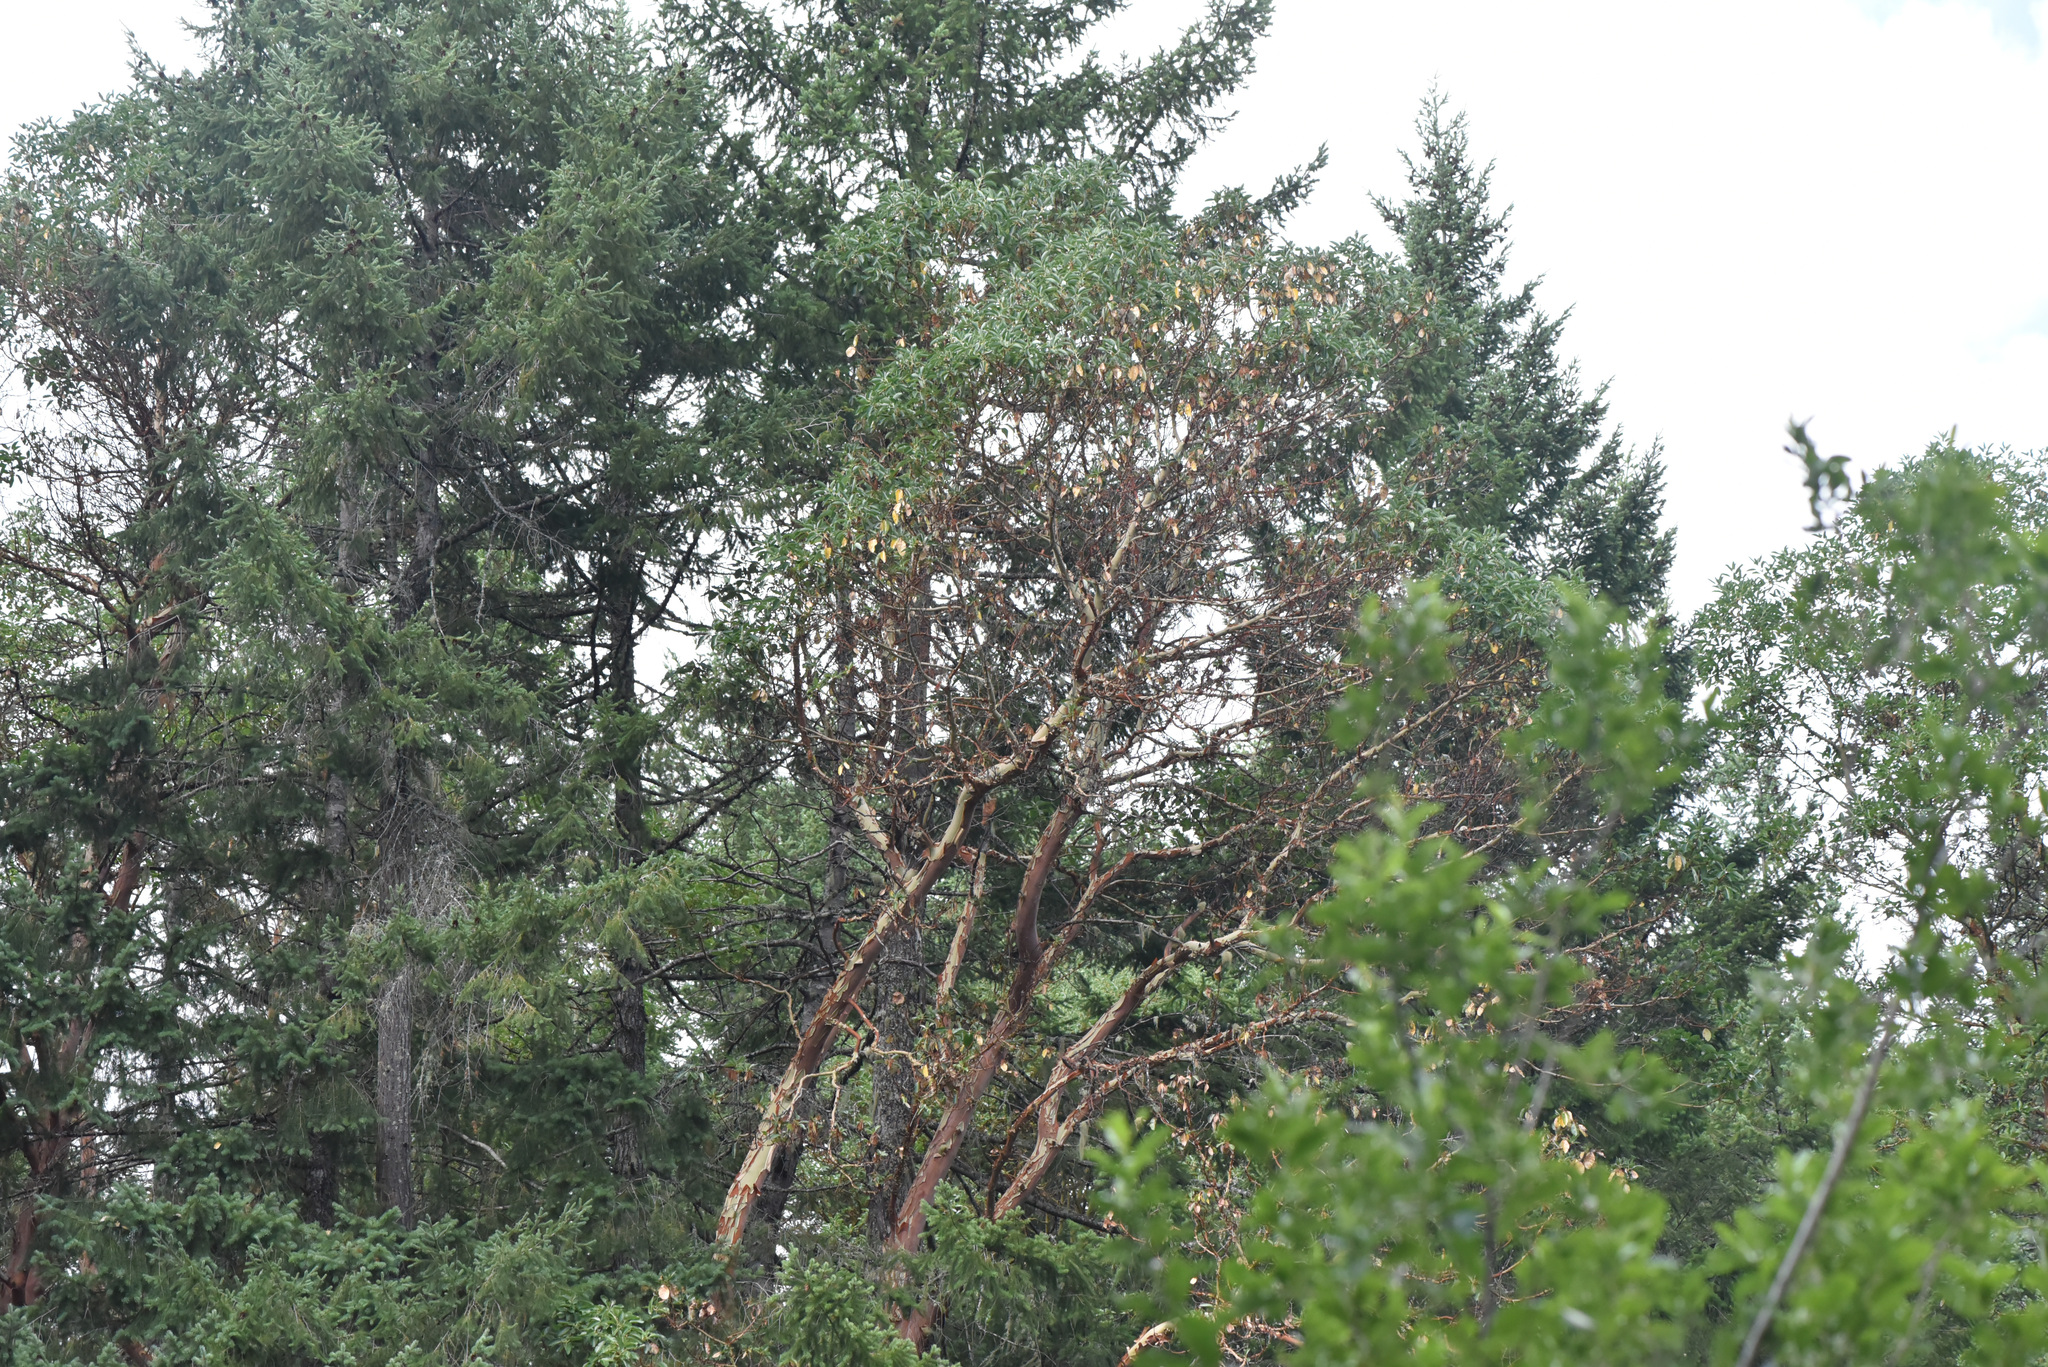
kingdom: Plantae
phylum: Tracheophyta
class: Magnoliopsida
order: Ericales
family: Ericaceae
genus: Arbutus
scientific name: Arbutus menziesii
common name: Pacific madrone
